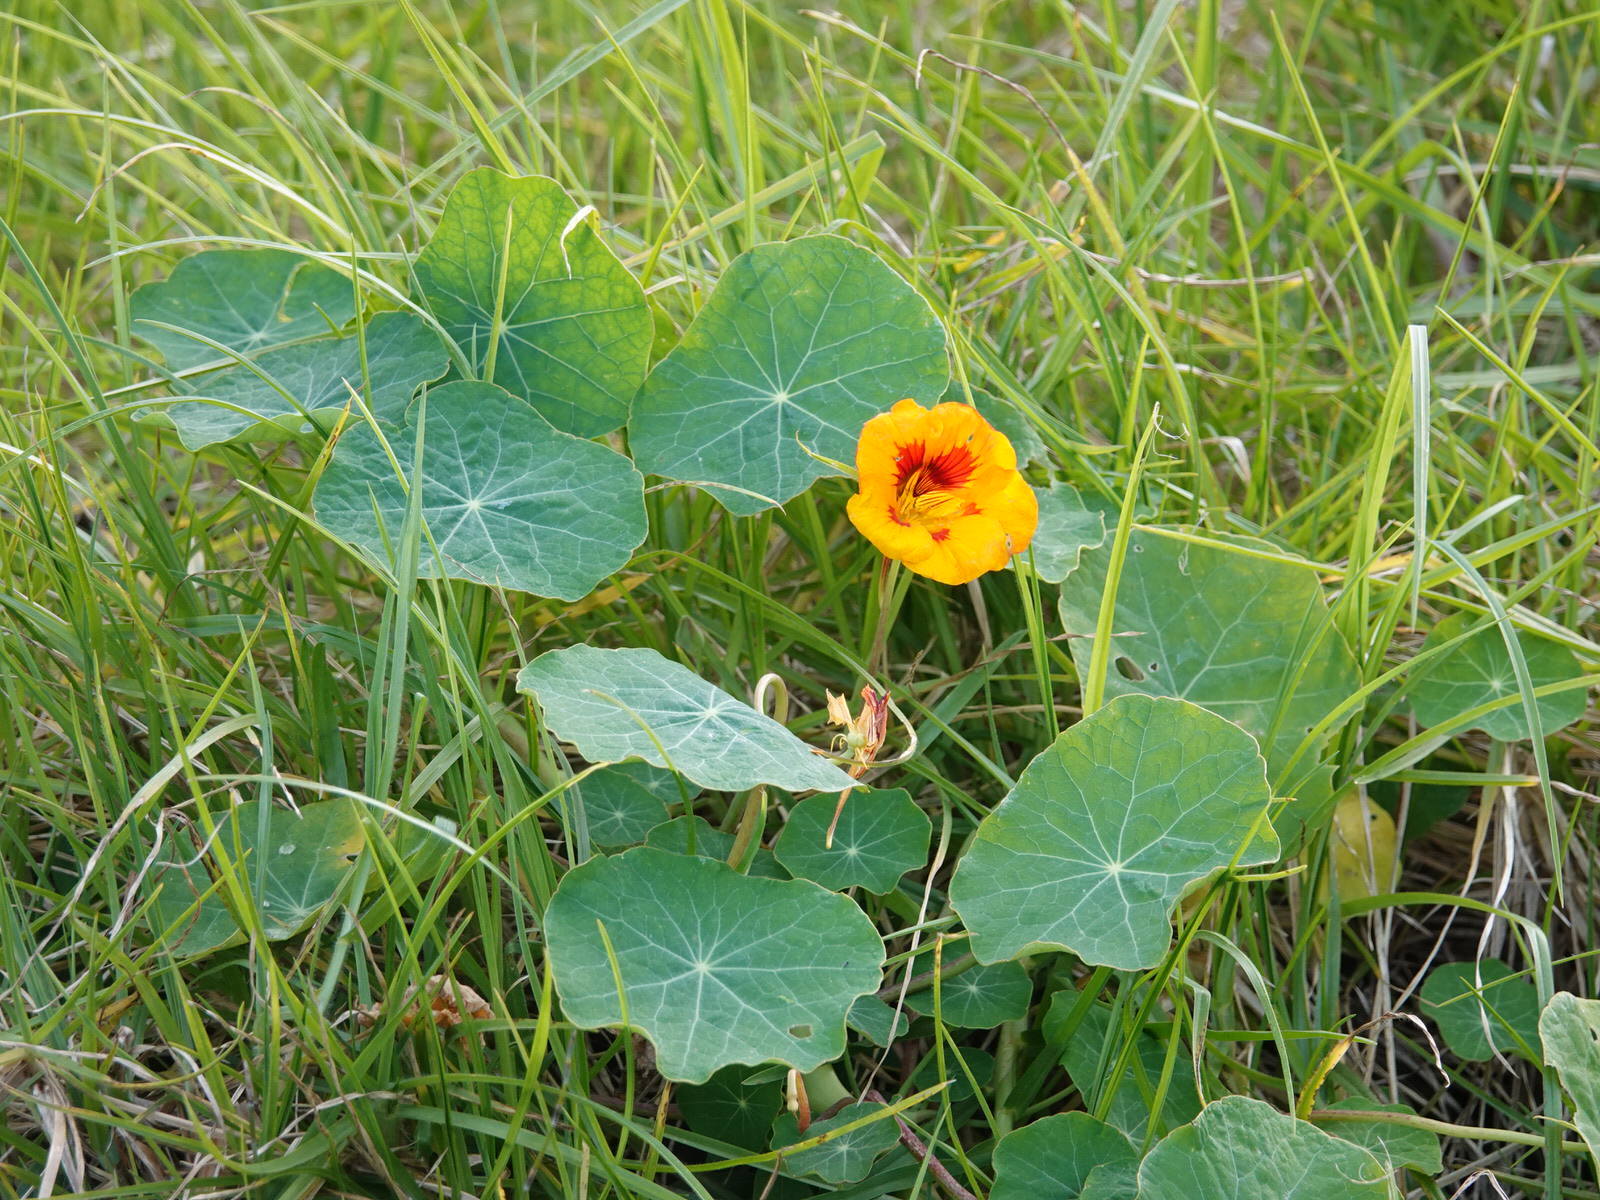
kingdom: Plantae
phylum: Tracheophyta
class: Magnoliopsida
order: Brassicales
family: Tropaeolaceae
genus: Tropaeolum
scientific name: Tropaeolum majus
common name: Nasturtium
